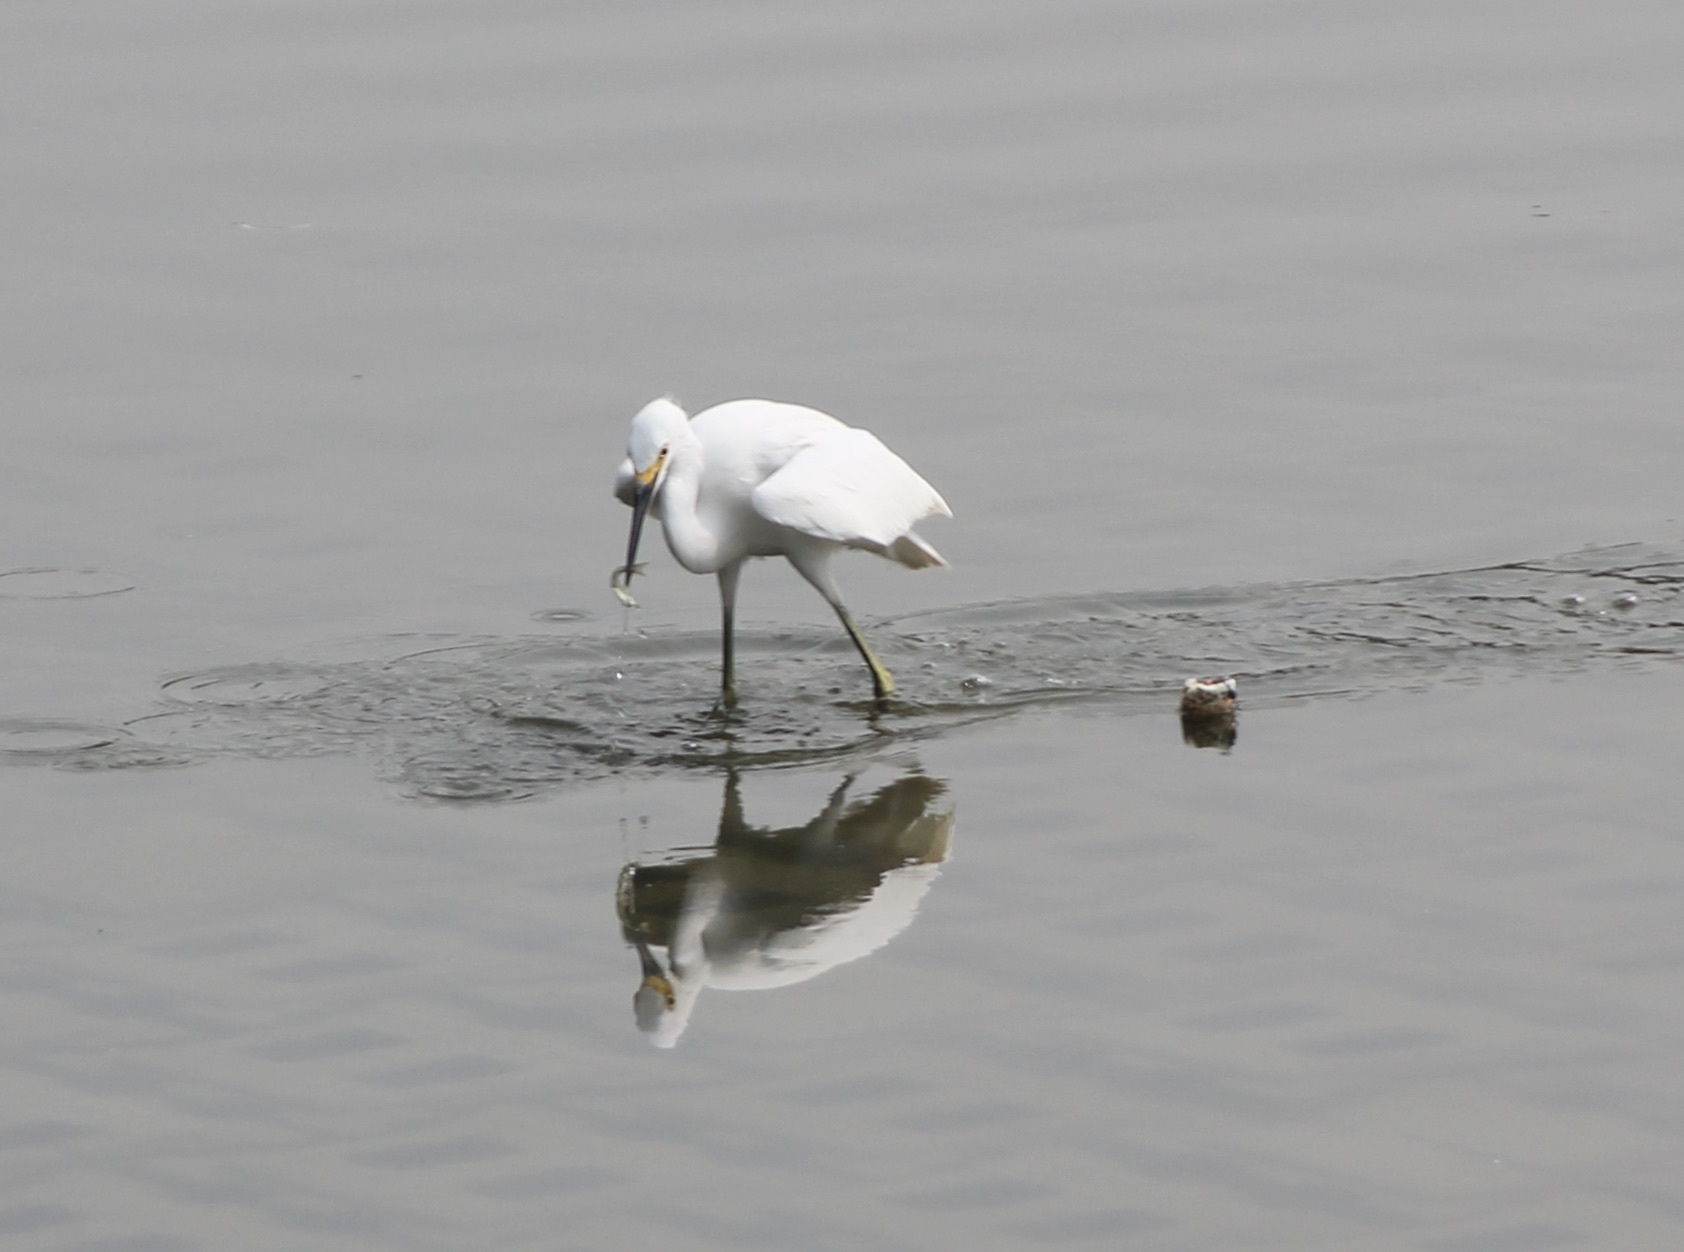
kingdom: Animalia
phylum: Chordata
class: Aves
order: Pelecaniformes
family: Ardeidae
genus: Egretta
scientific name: Egretta thula
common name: Snowy egret
